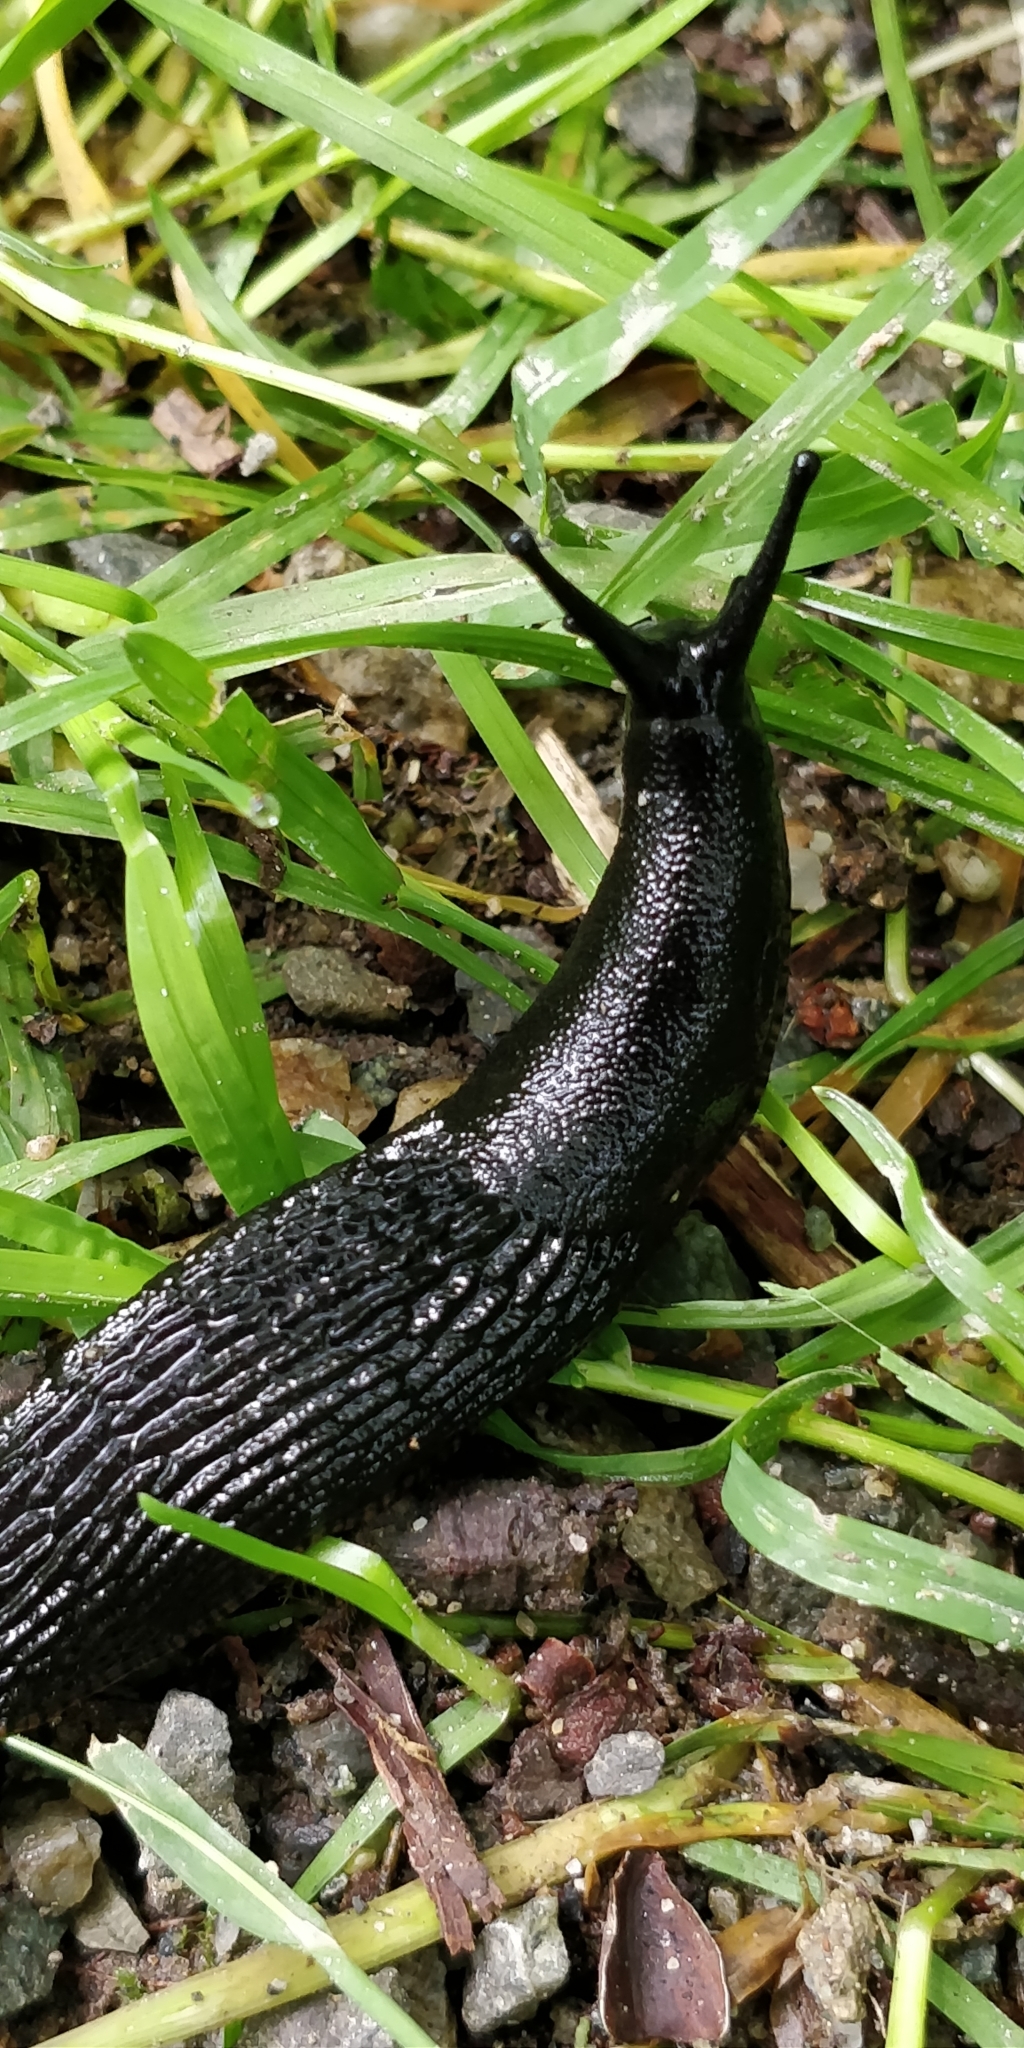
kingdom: Animalia
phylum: Mollusca
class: Gastropoda
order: Stylommatophora
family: Arionidae
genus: Arion
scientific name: Arion
